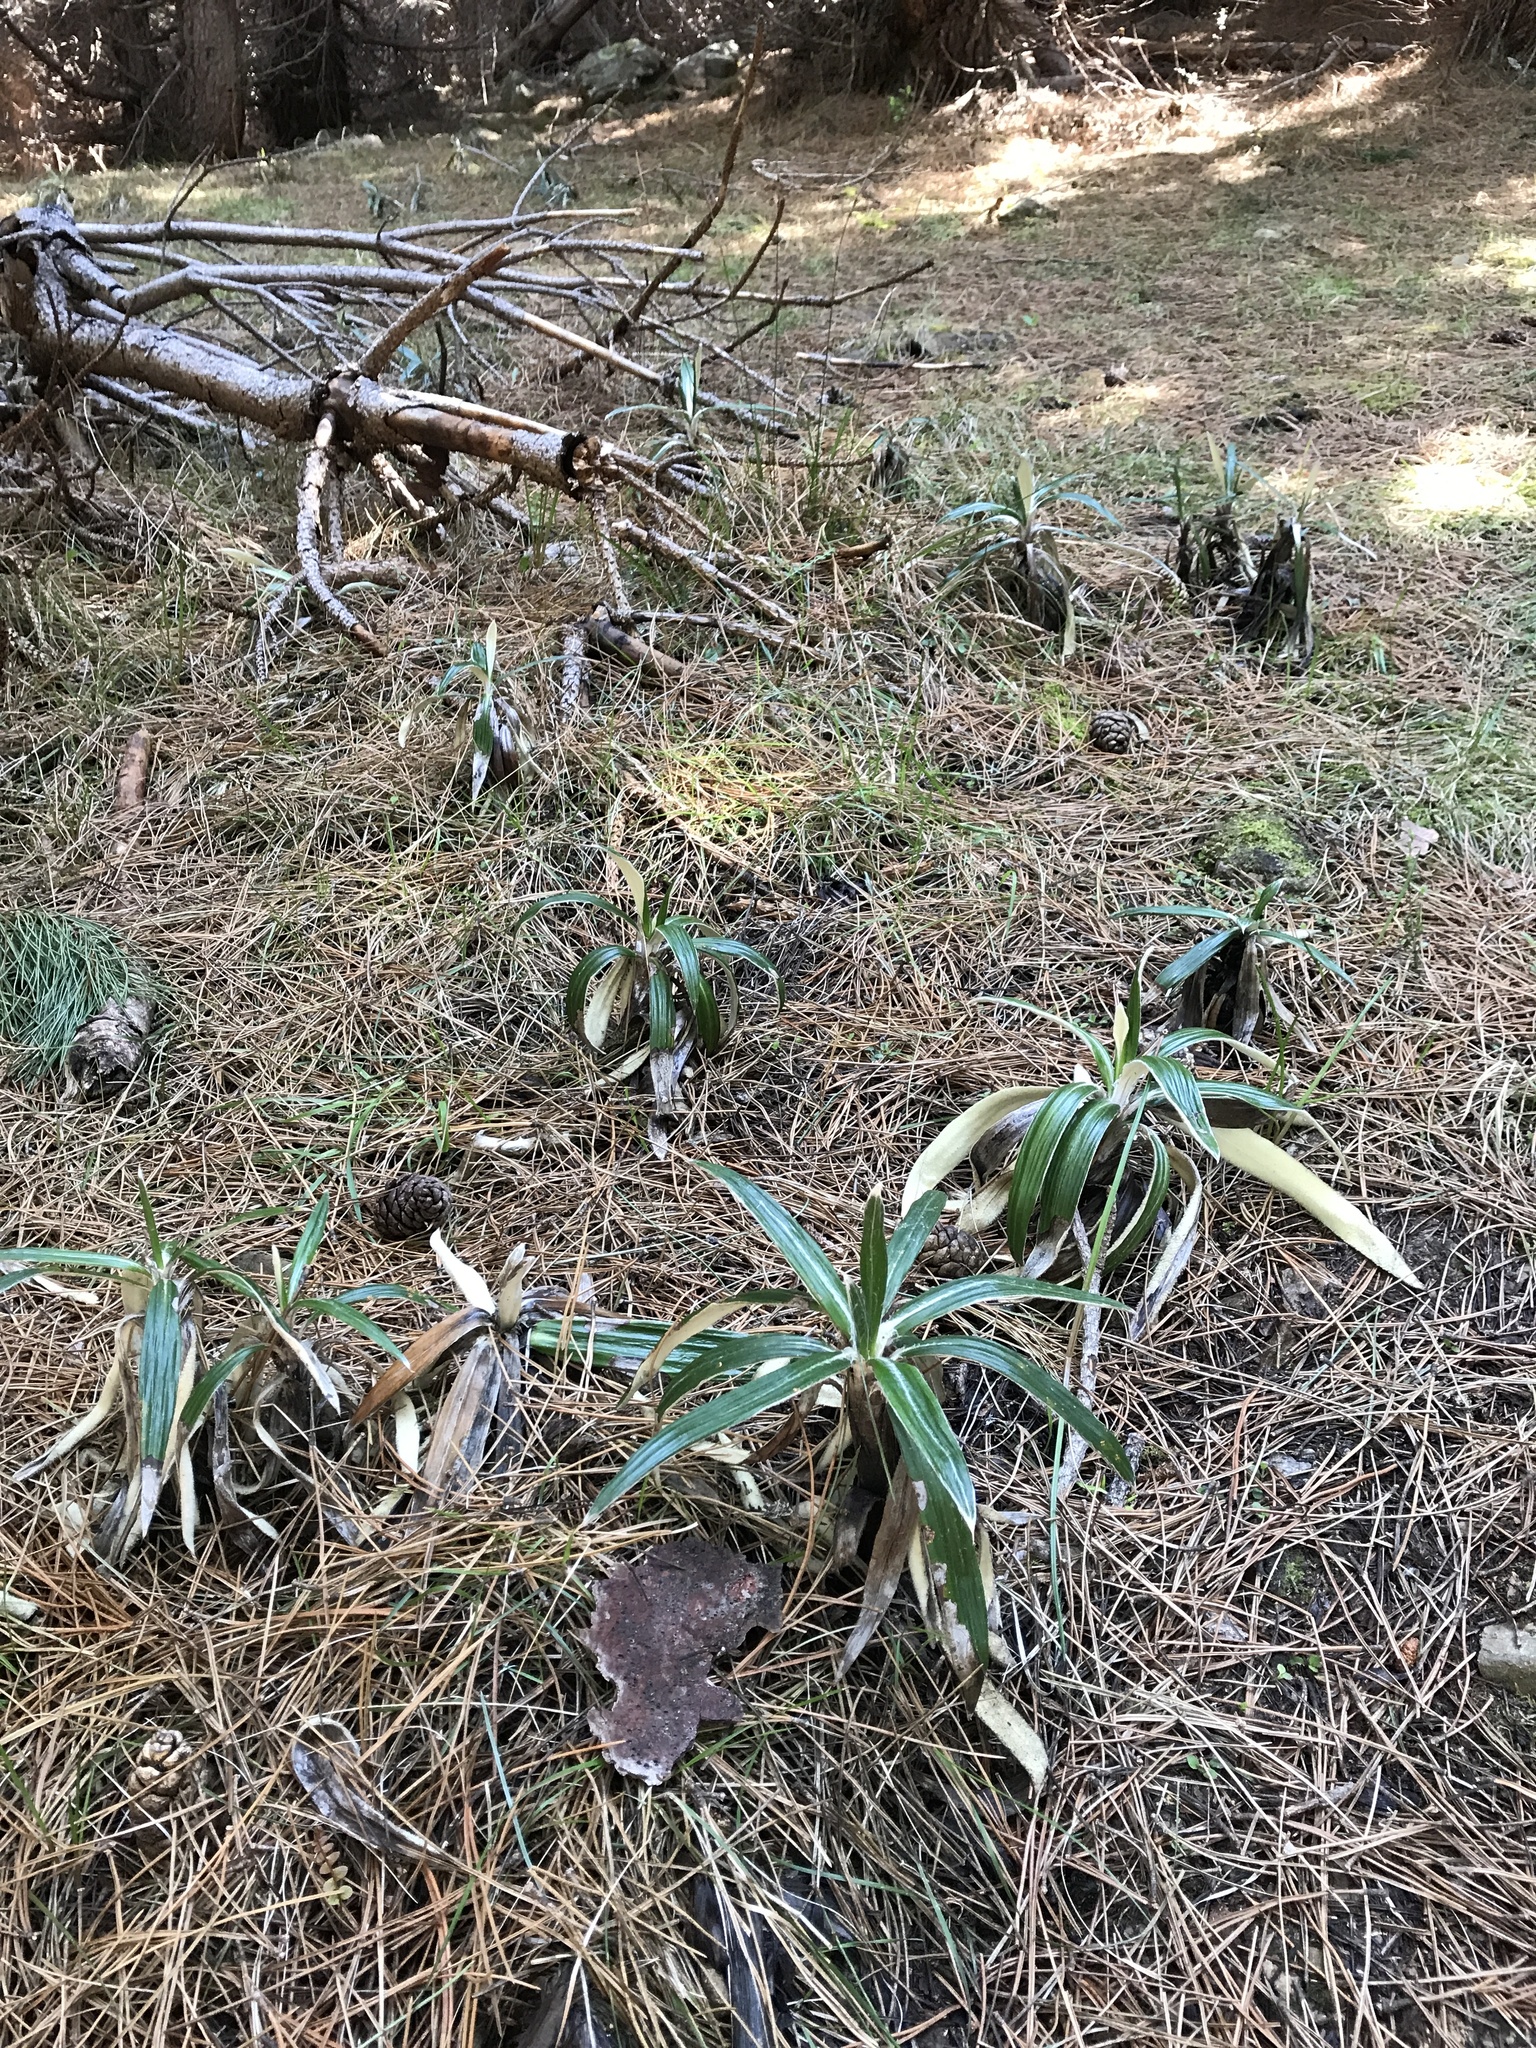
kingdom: Plantae
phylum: Tracheophyta
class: Magnoliopsida
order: Asterales
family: Asteraceae
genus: Celmisia
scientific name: Celmisia spectabilis
